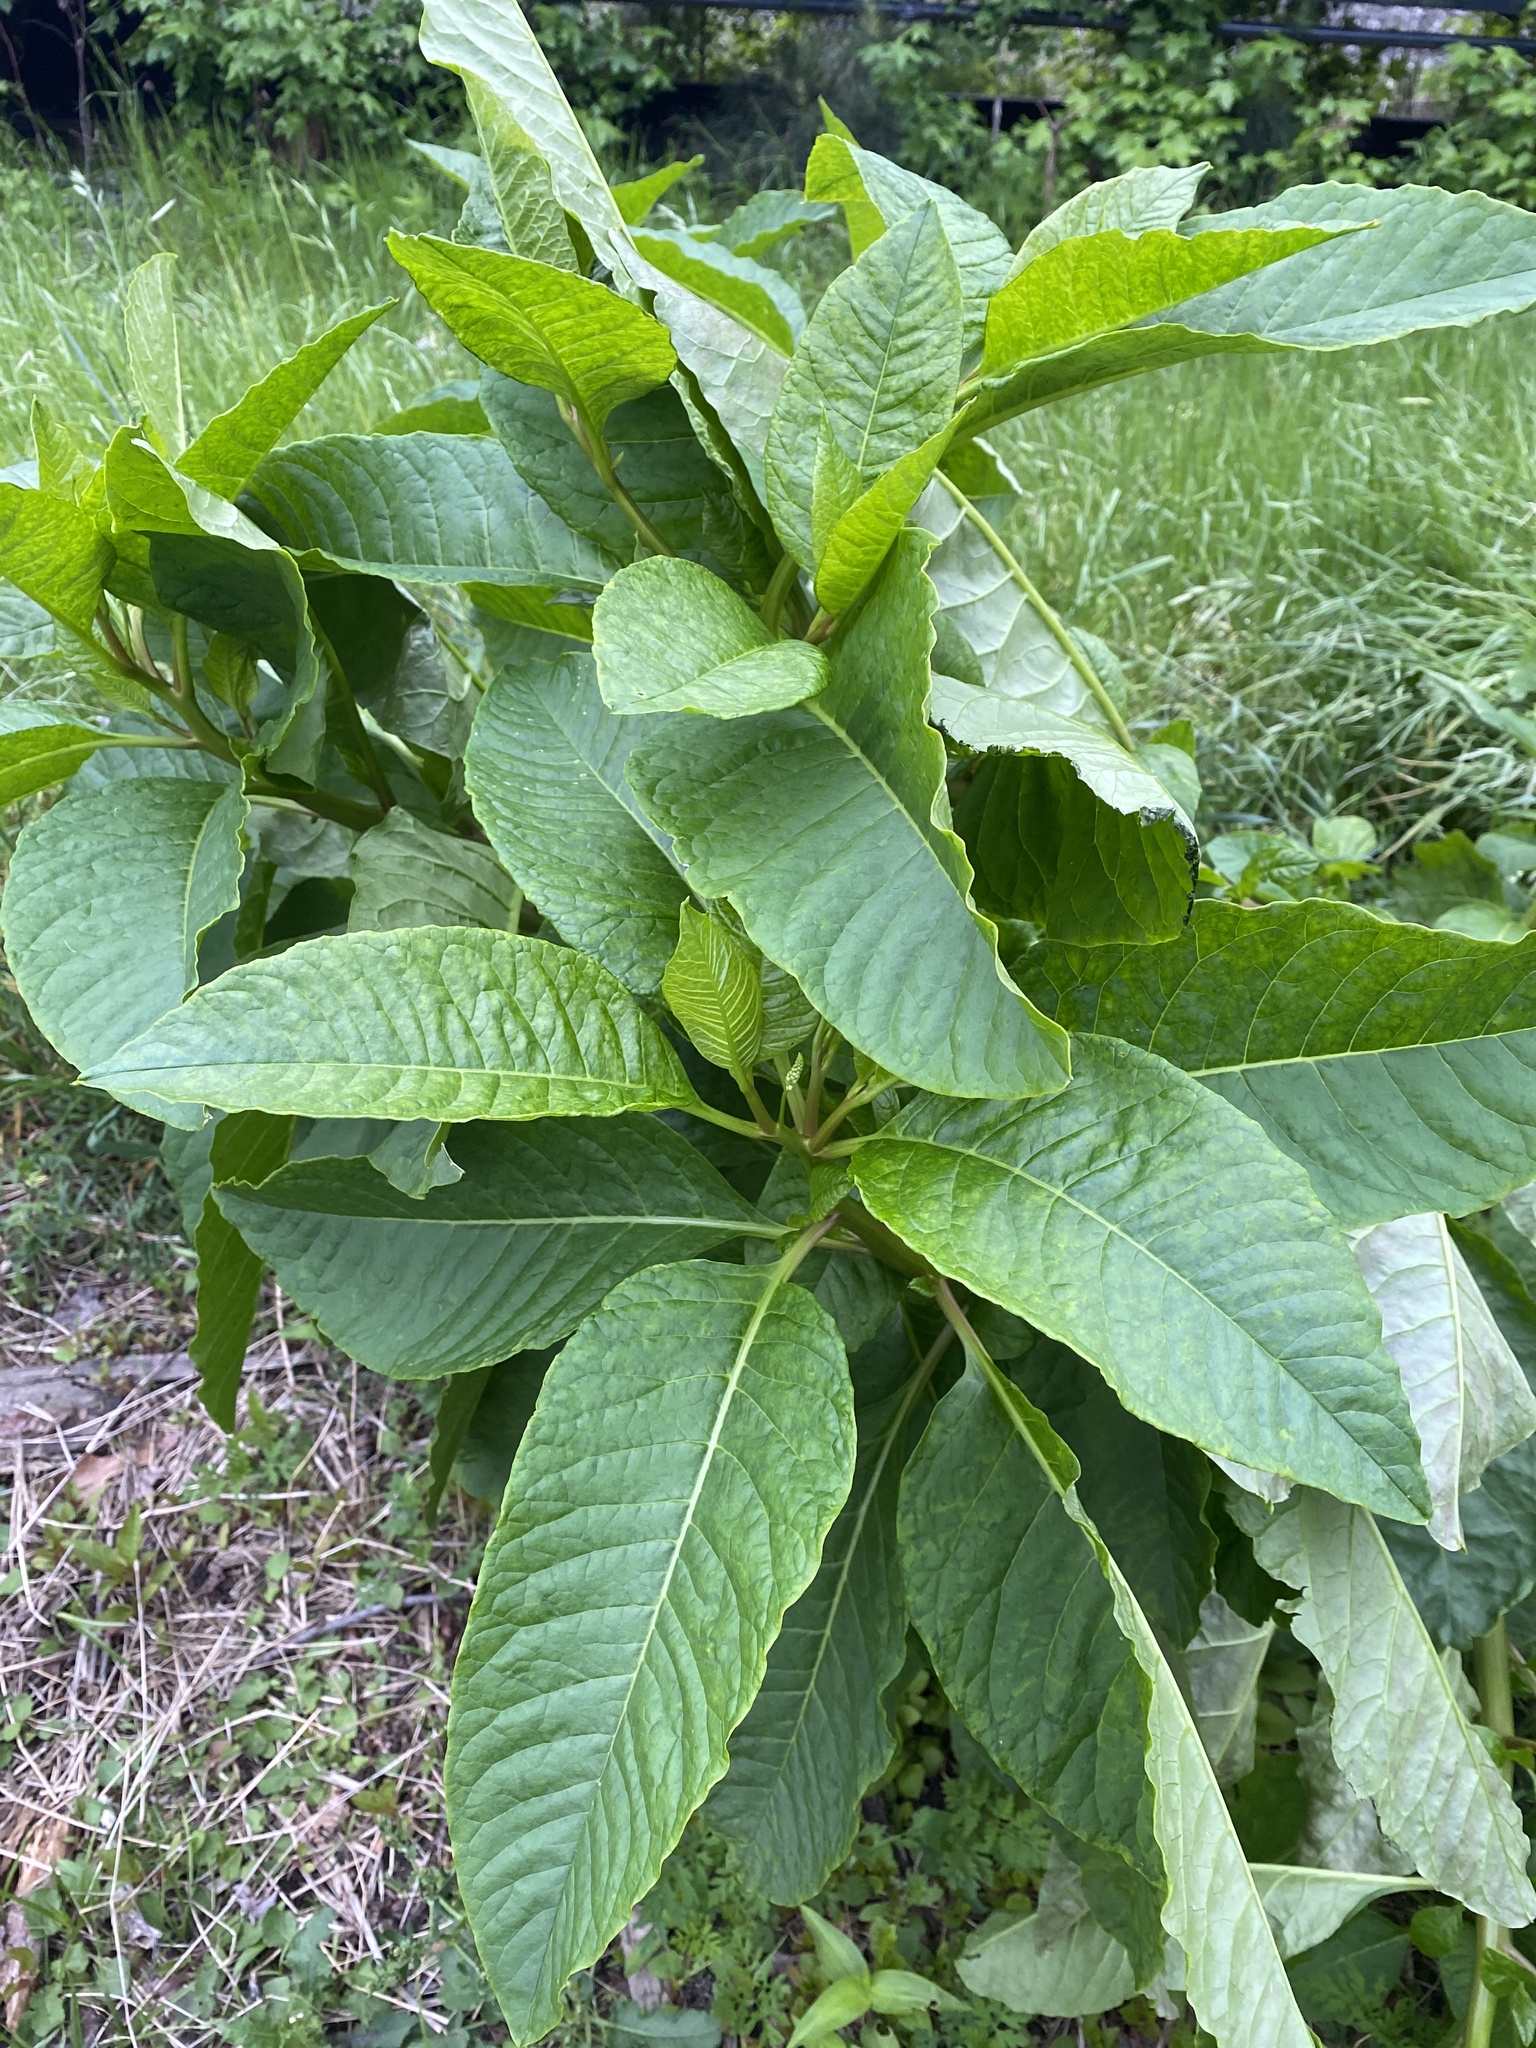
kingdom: Plantae
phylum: Tracheophyta
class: Magnoliopsida
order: Caryophyllales
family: Phytolaccaceae
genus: Phytolacca
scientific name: Phytolacca americana
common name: American pokeweed
